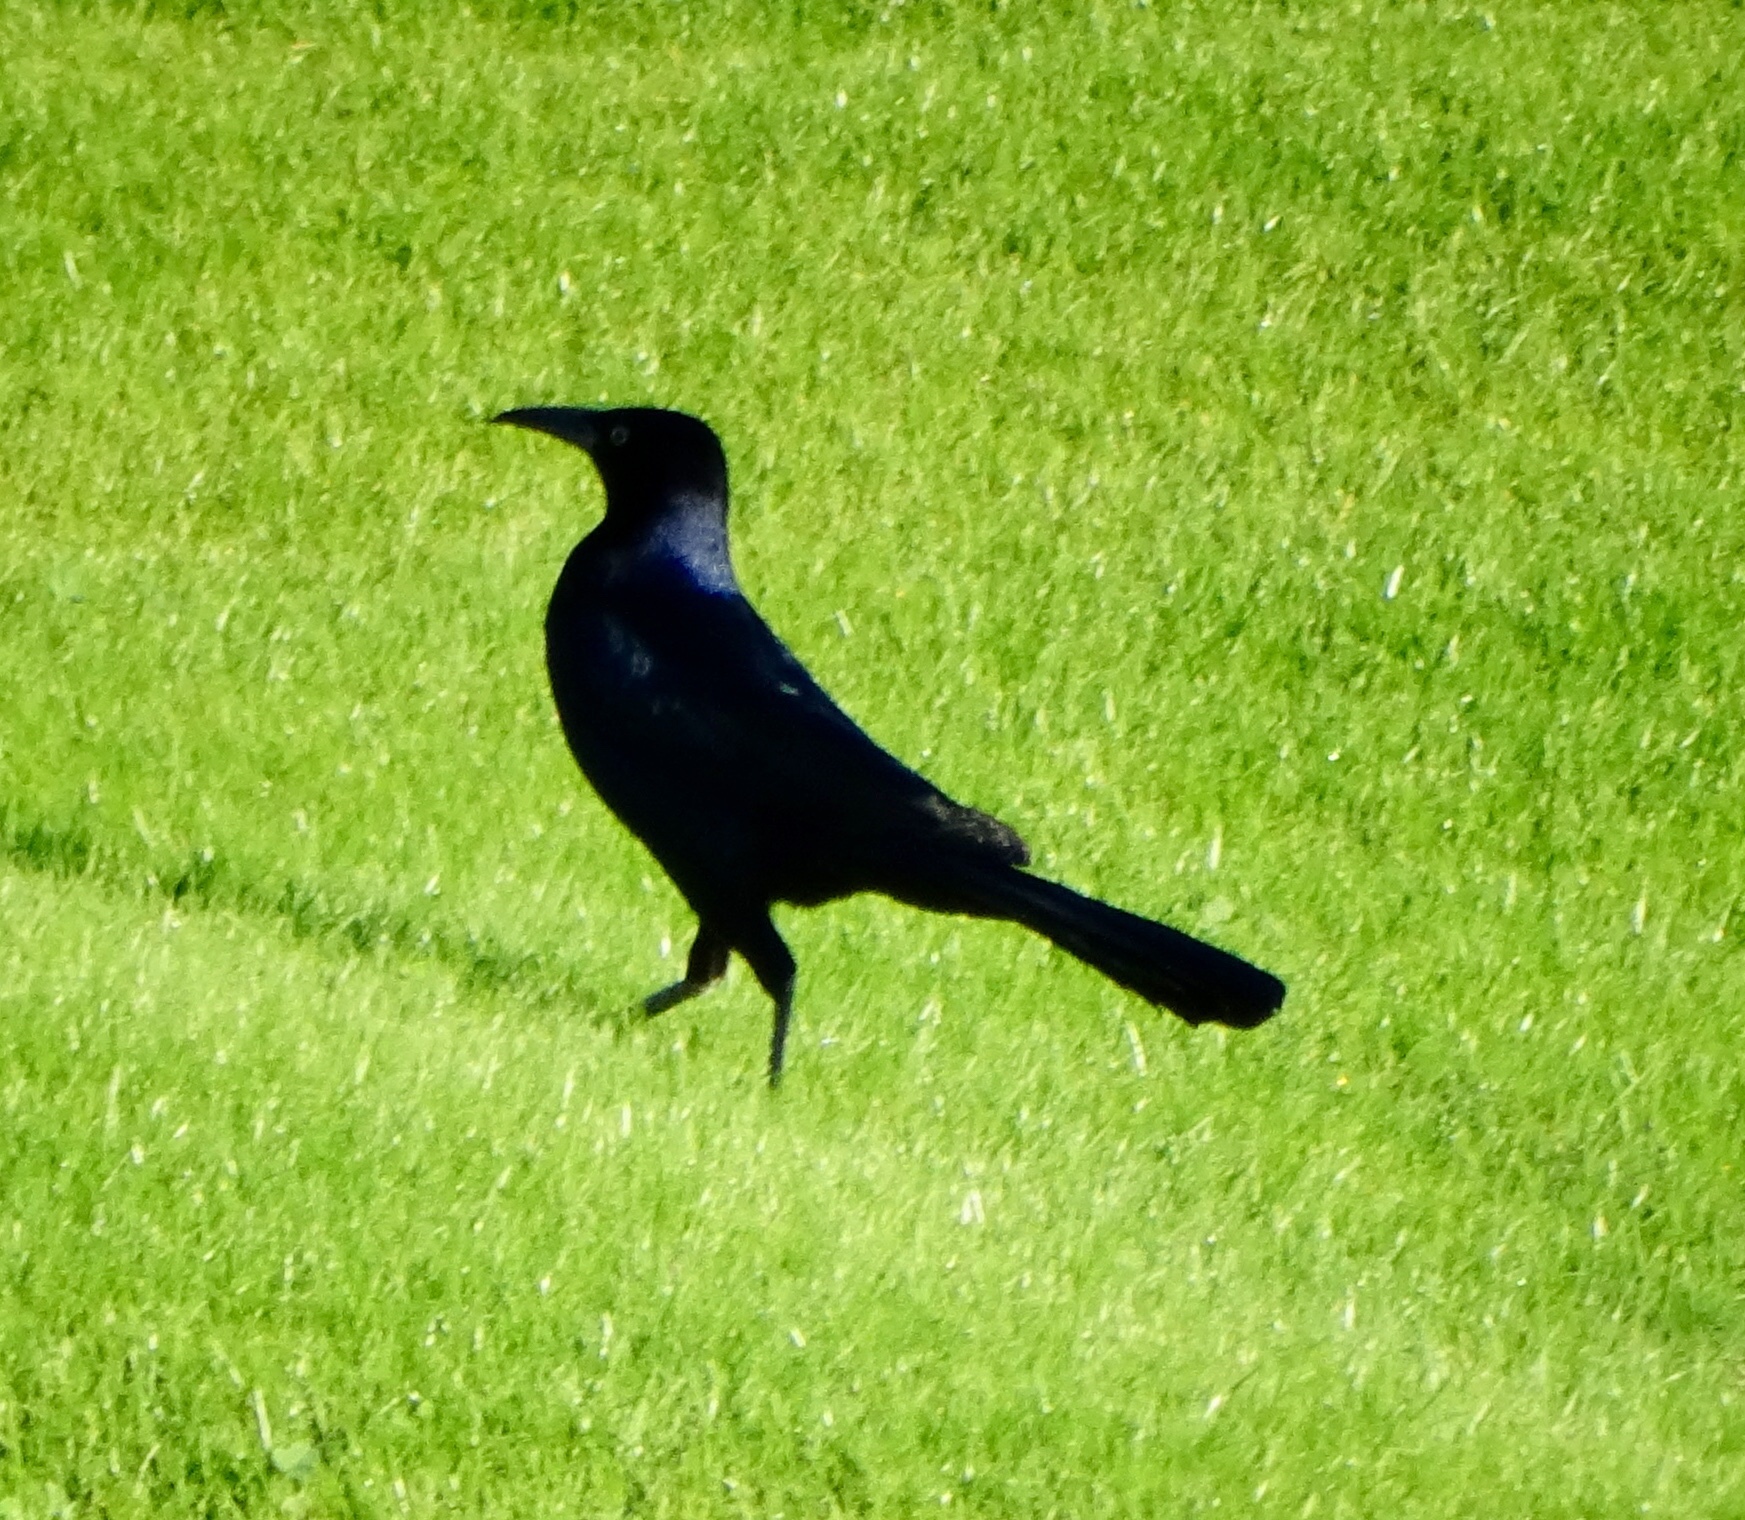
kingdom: Animalia
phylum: Chordata
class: Aves
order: Passeriformes
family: Icteridae
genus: Quiscalus
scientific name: Quiscalus mexicanus
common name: Great-tailed grackle
